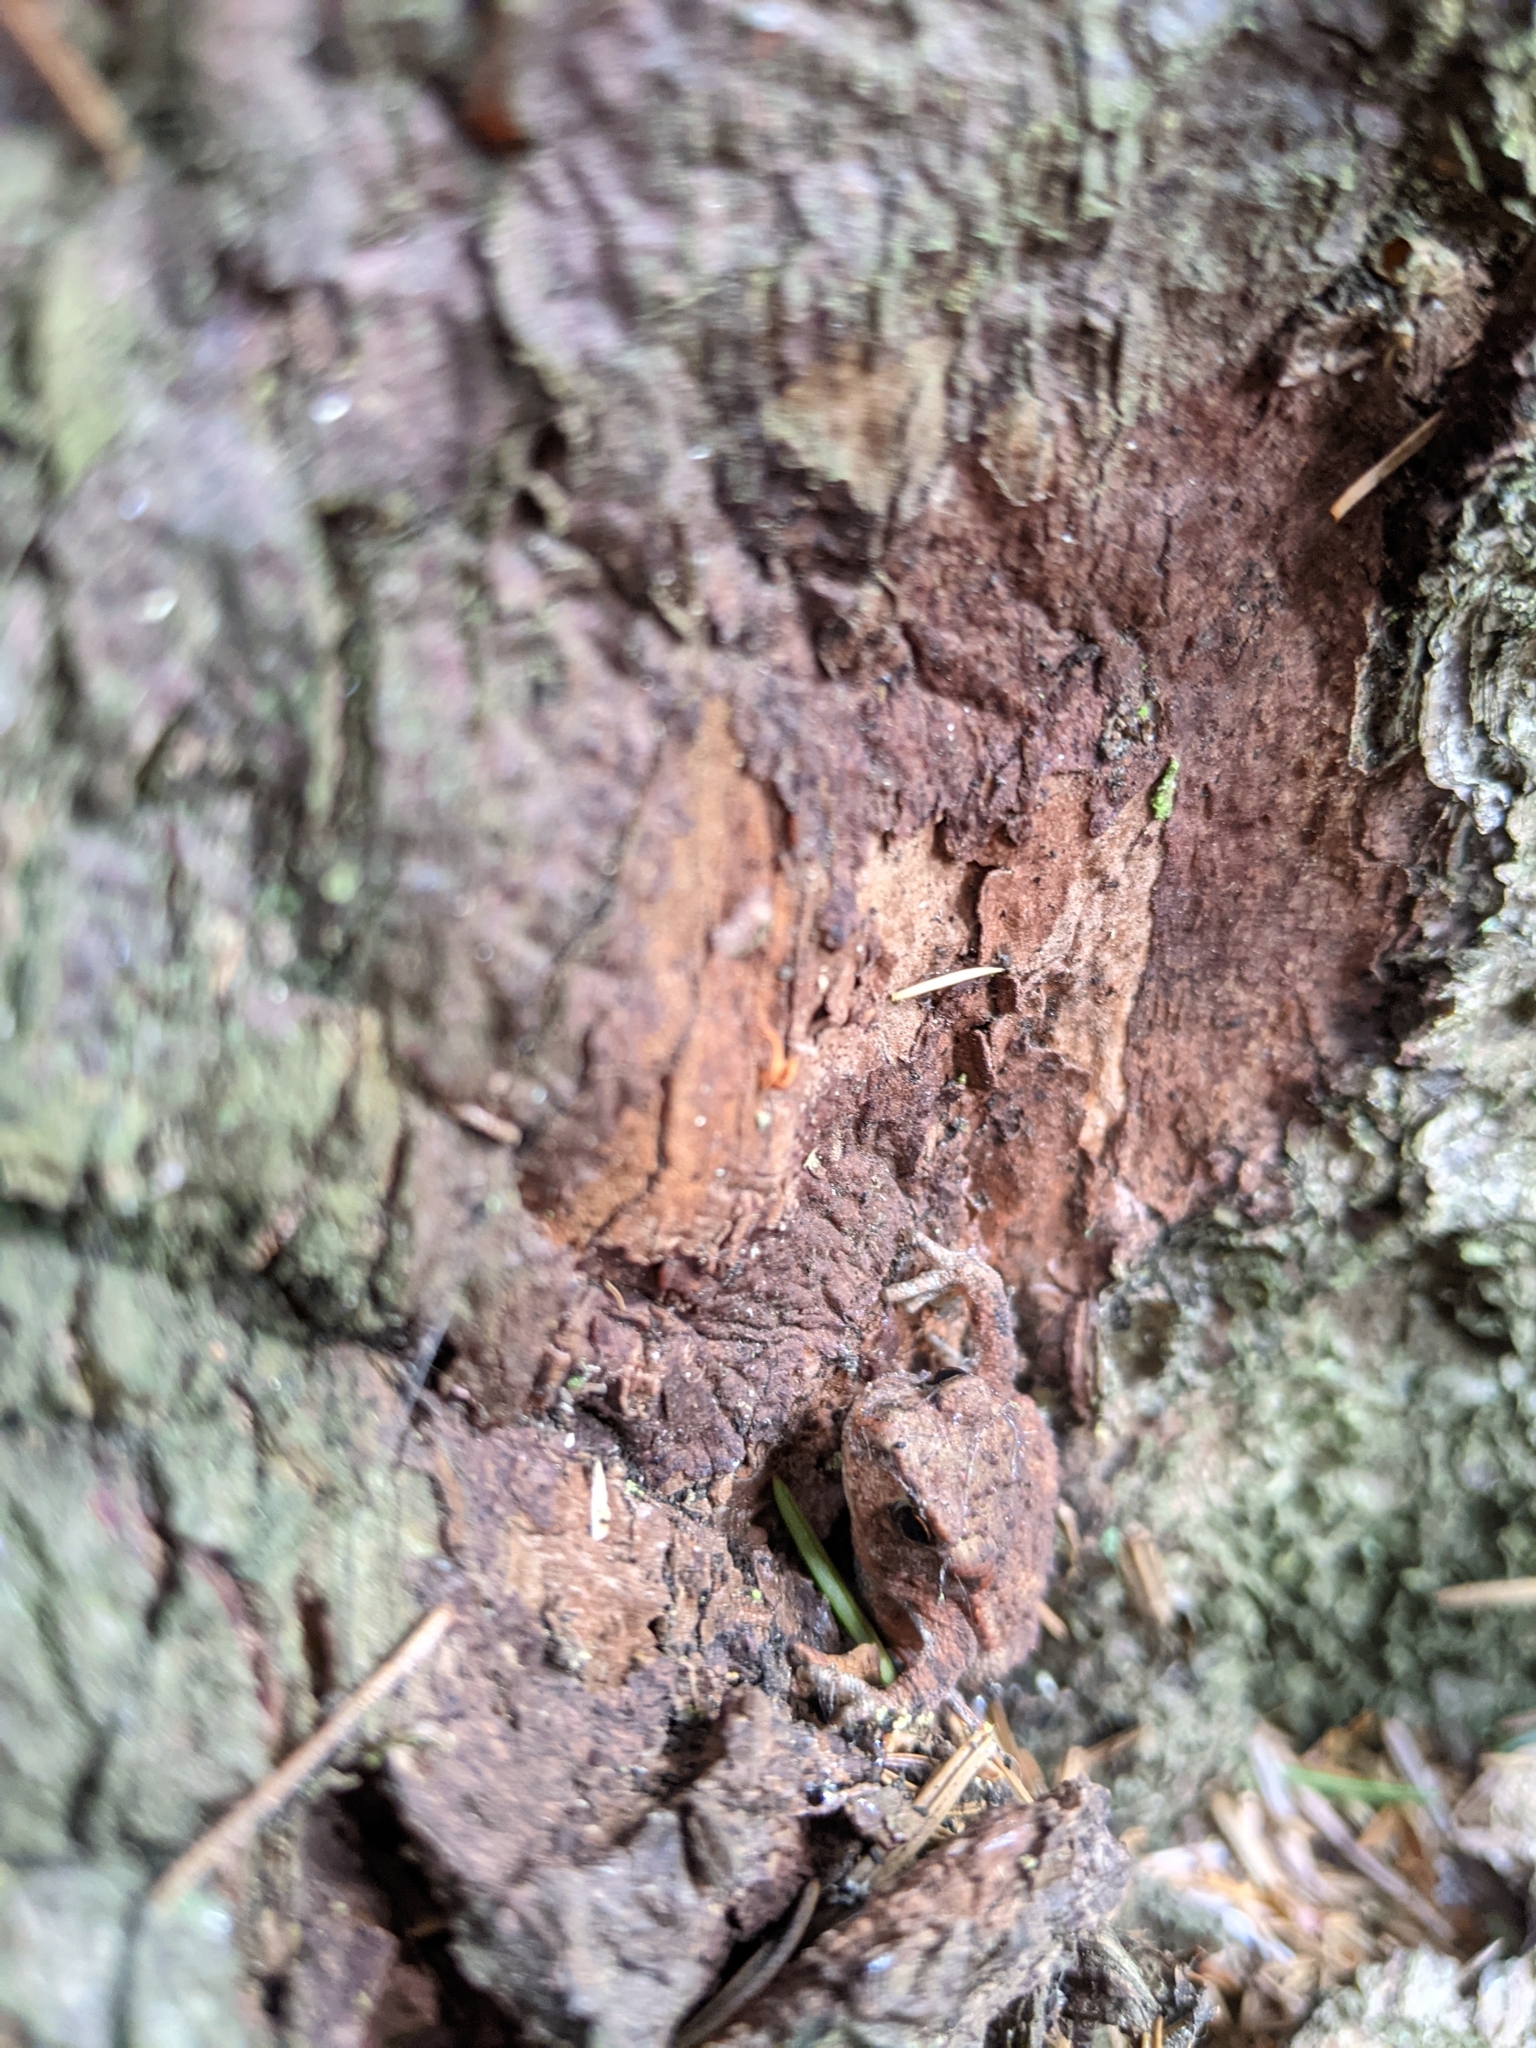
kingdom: Animalia
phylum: Chordata
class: Amphibia
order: Anura
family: Bufonidae
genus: Bufo
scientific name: Bufo bufo
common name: Common toad
